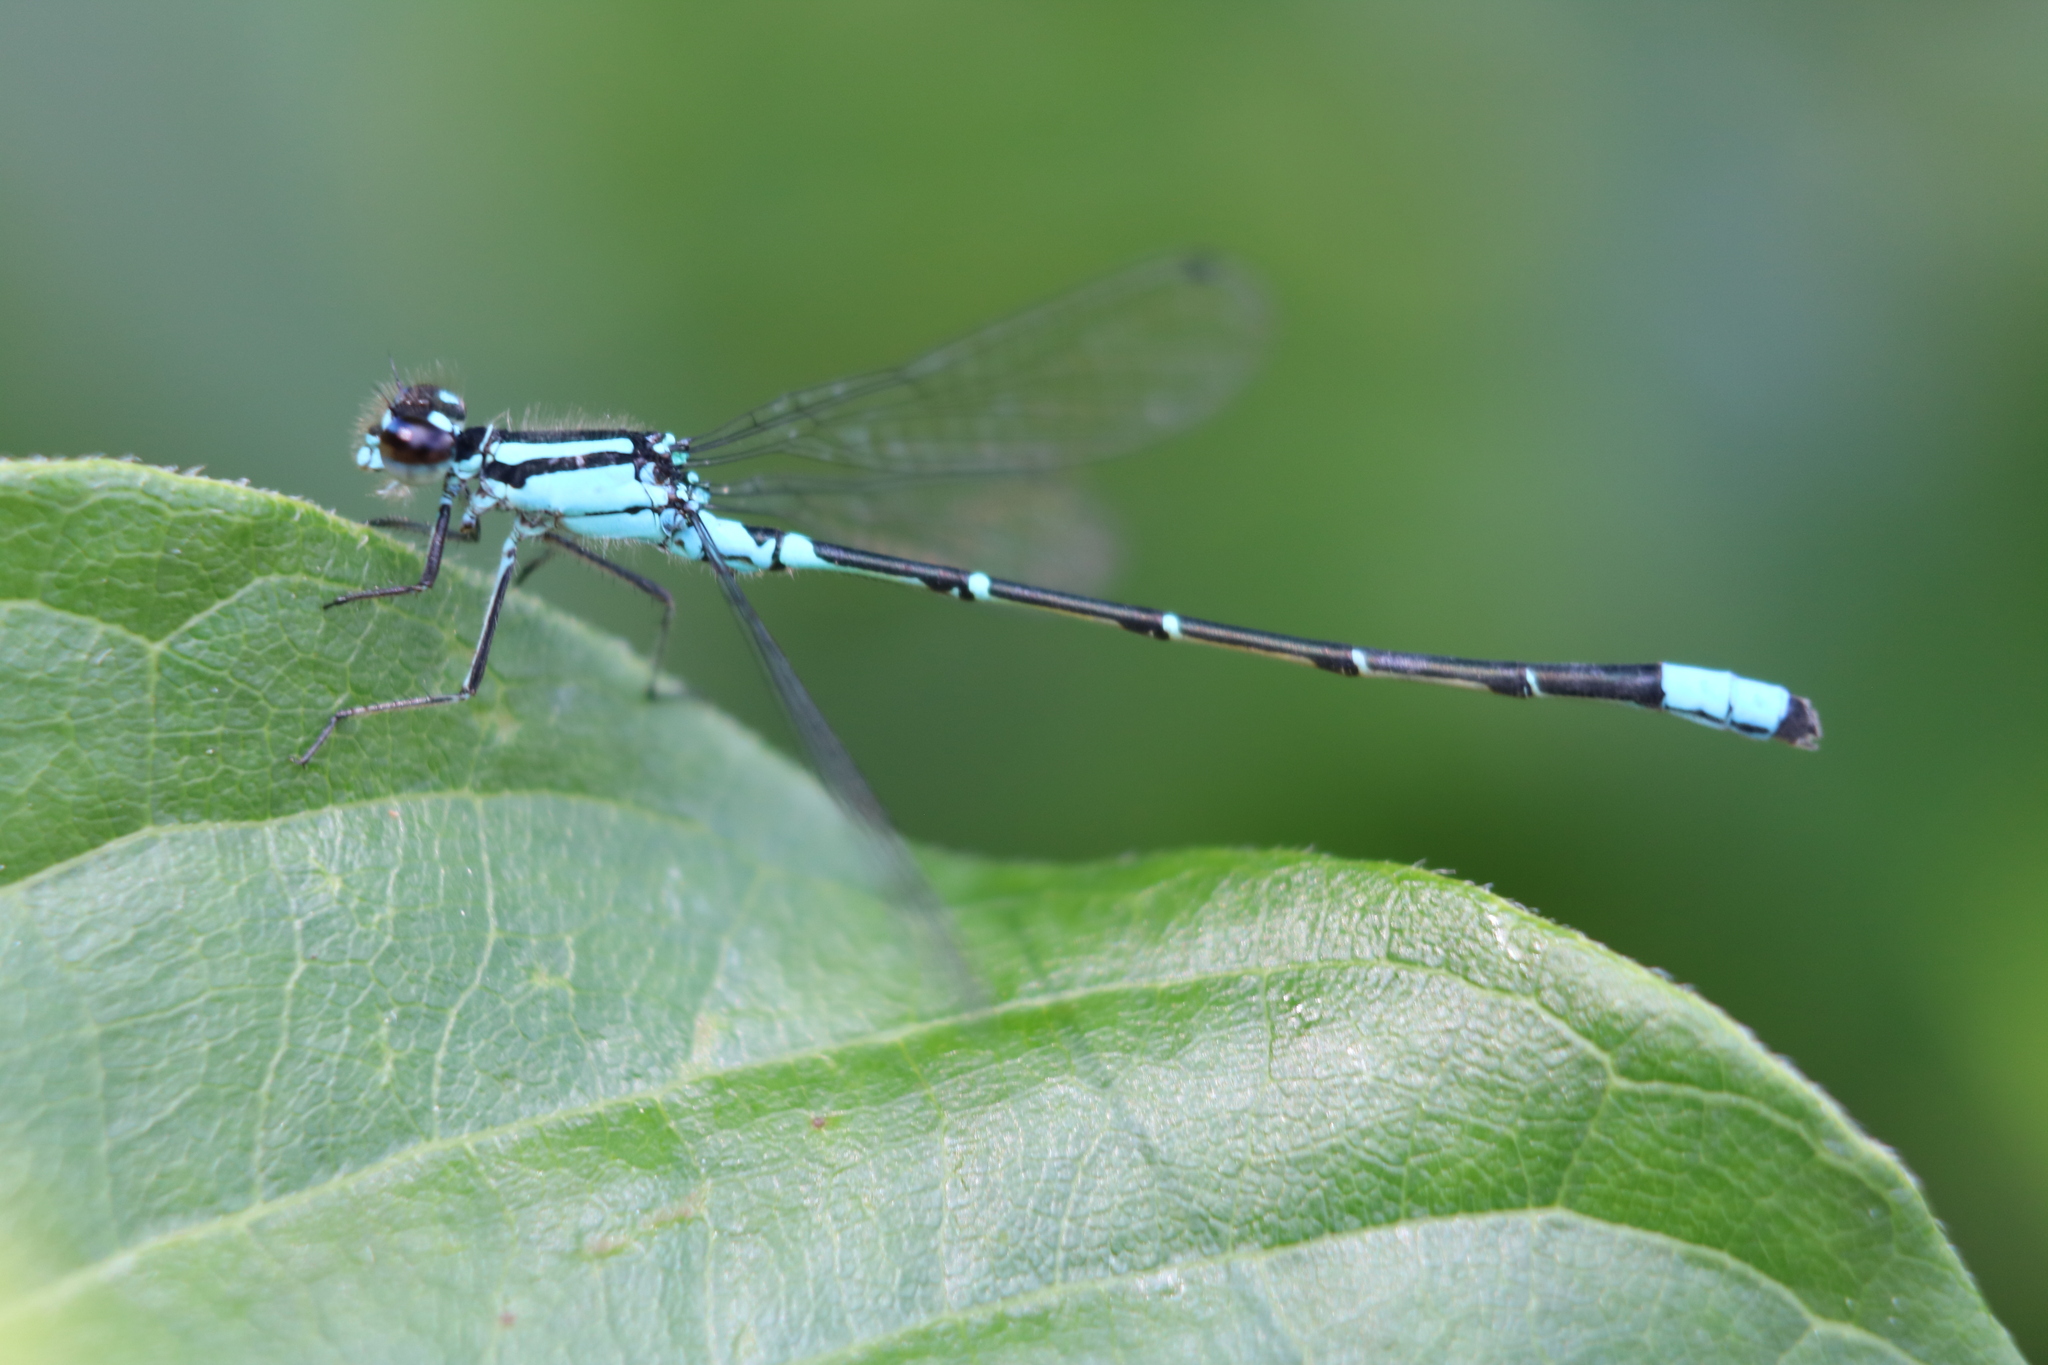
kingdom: Animalia
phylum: Arthropoda
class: Insecta
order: Odonata
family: Coenagrionidae
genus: Enallagma
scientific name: Enallagma geminatum
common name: Skimming bluet
